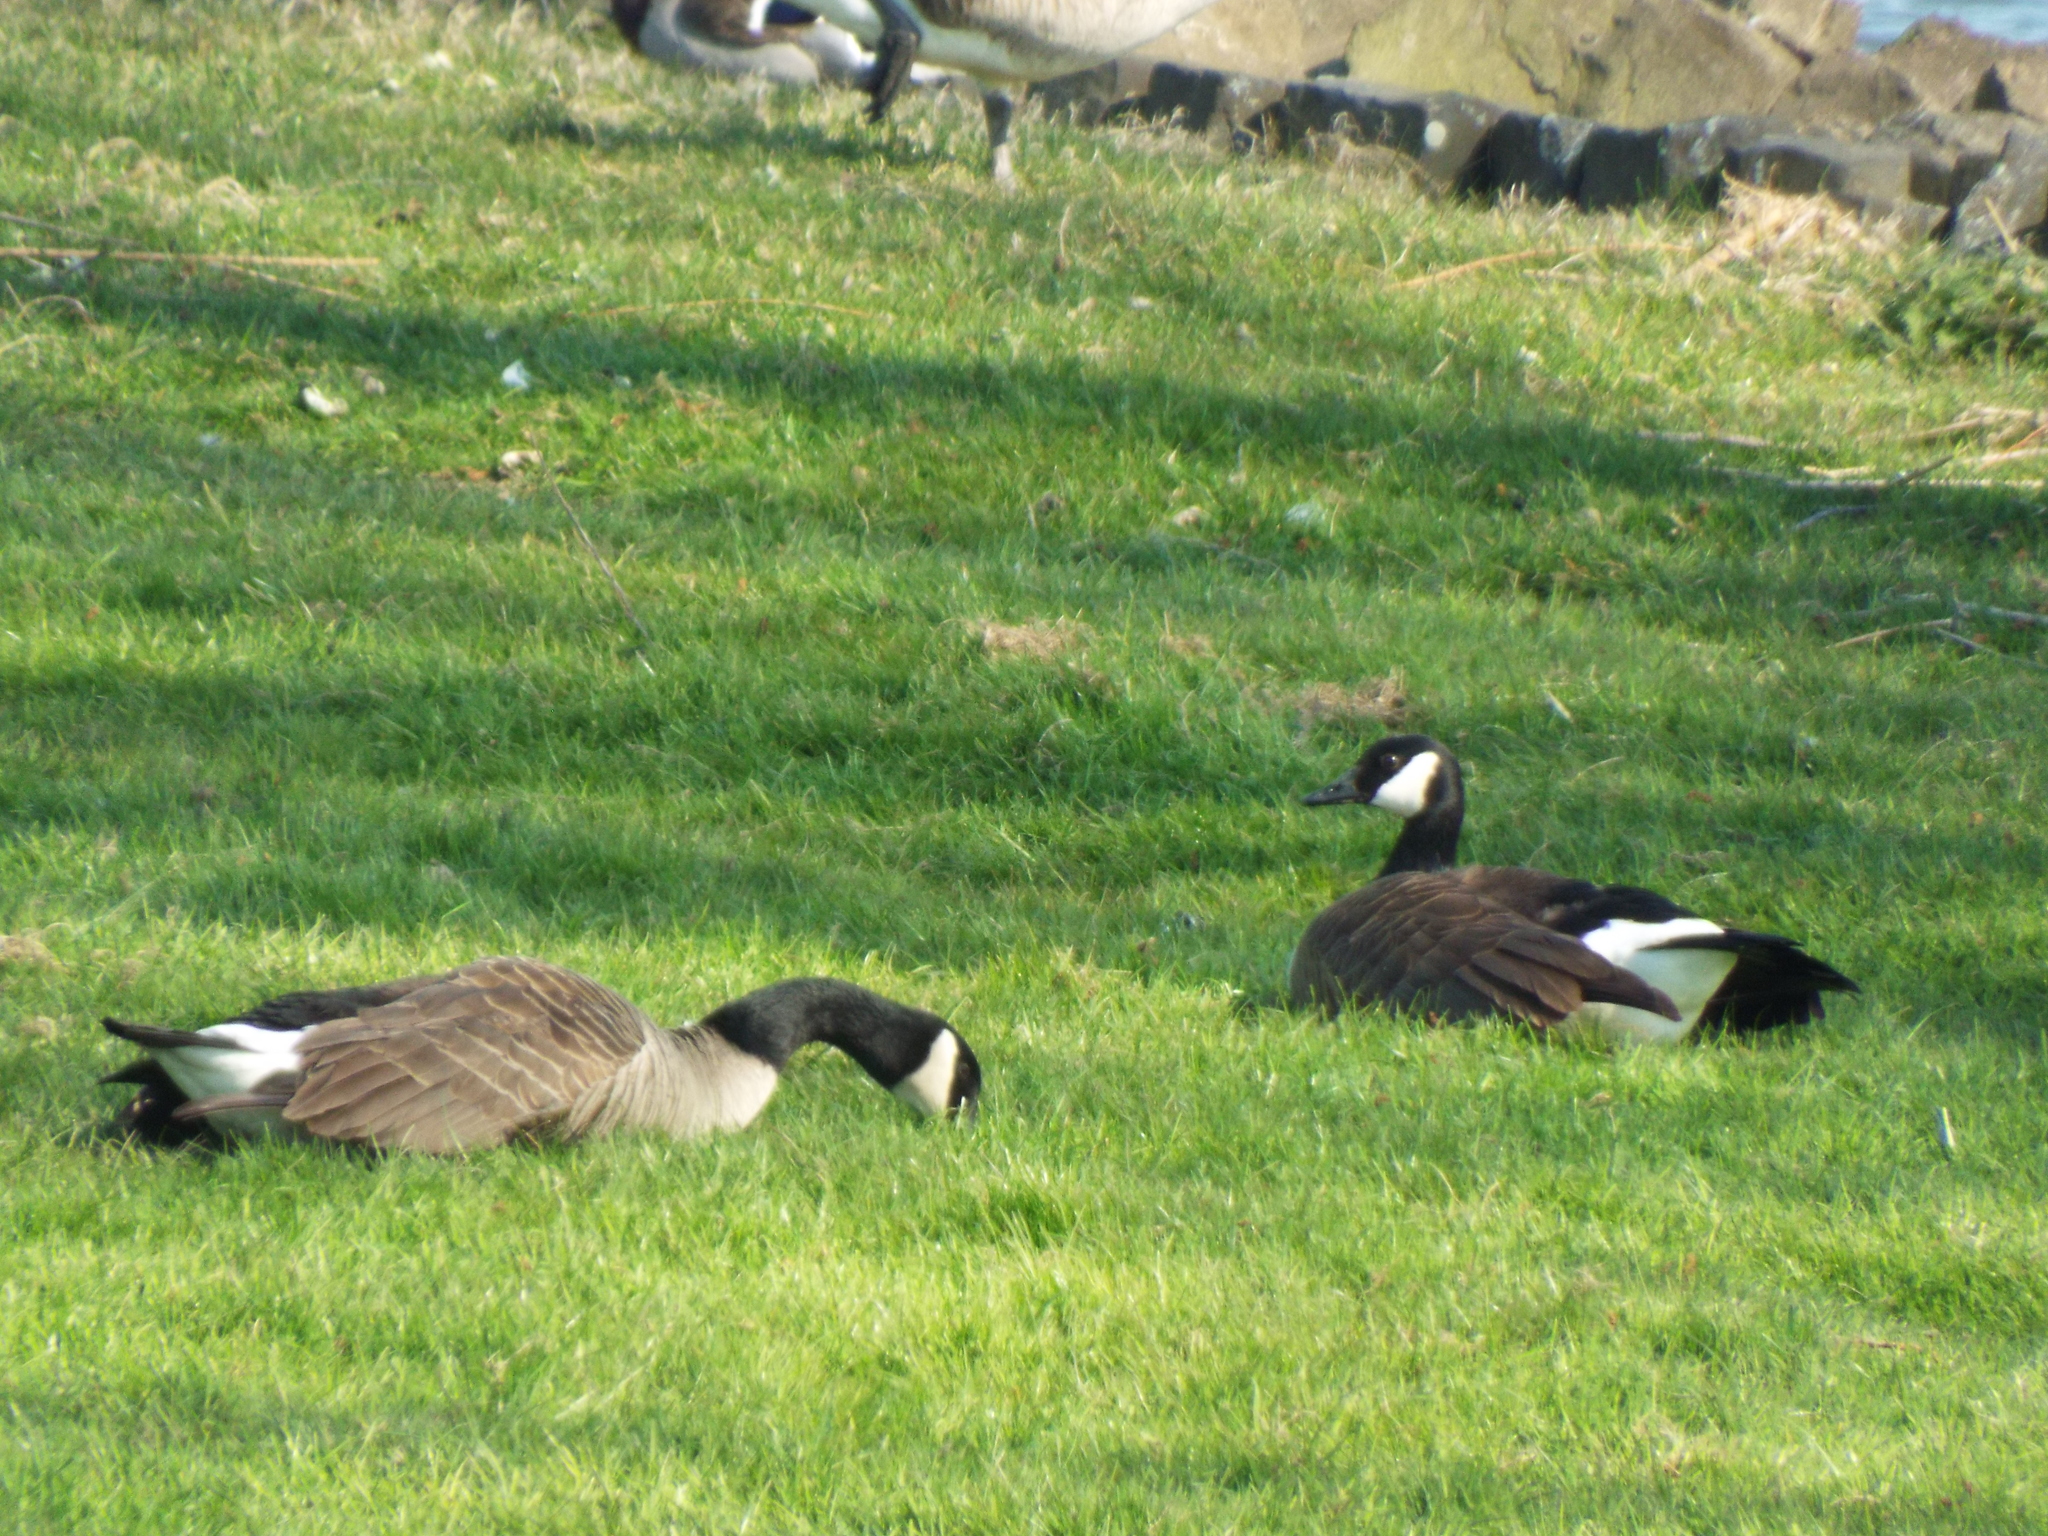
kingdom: Animalia
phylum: Chordata
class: Aves
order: Anseriformes
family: Anatidae
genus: Branta
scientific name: Branta canadensis
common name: Canada goose
